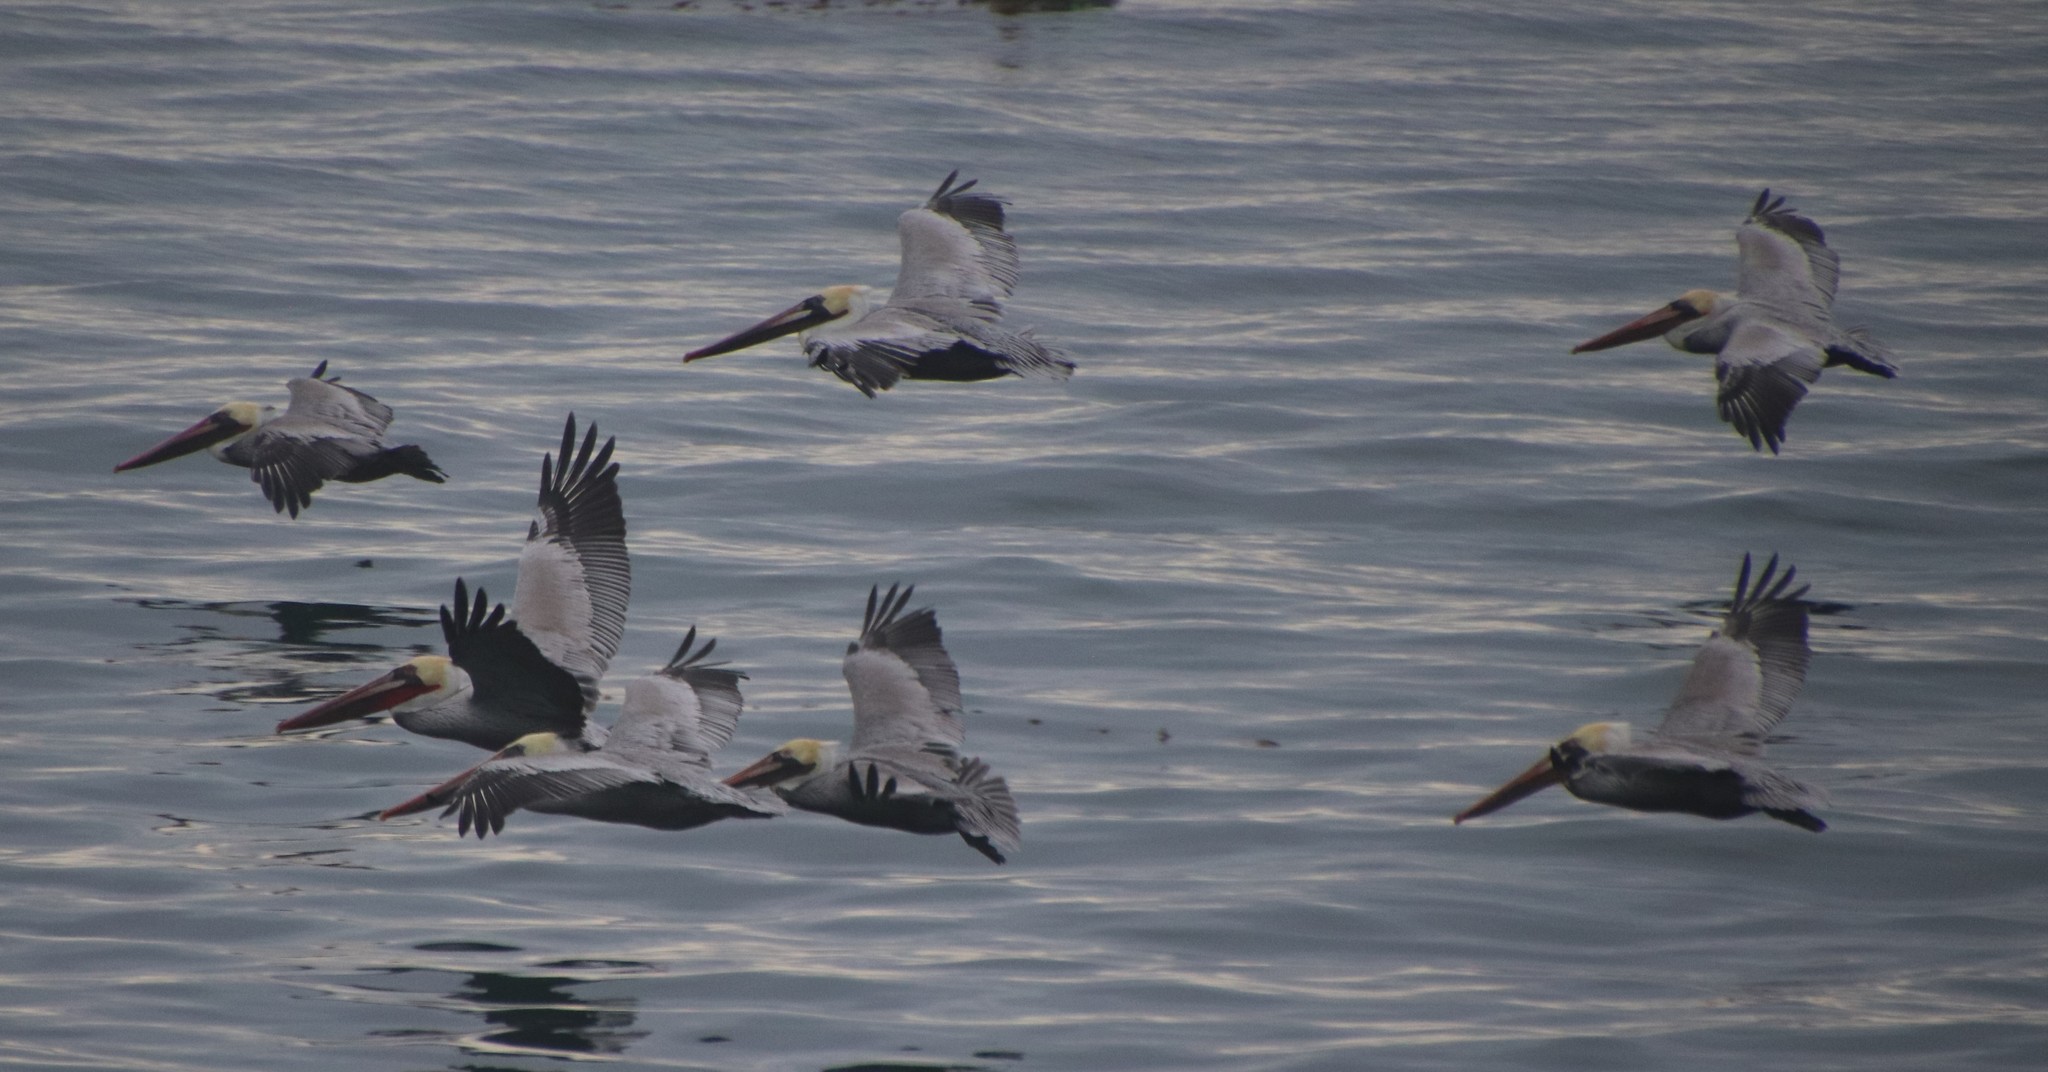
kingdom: Animalia
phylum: Chordata
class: Aves
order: Pelecaniformes
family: Pelecanidae
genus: Pelecanus
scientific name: Pelecanus occidentalis
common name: Brown pelican
